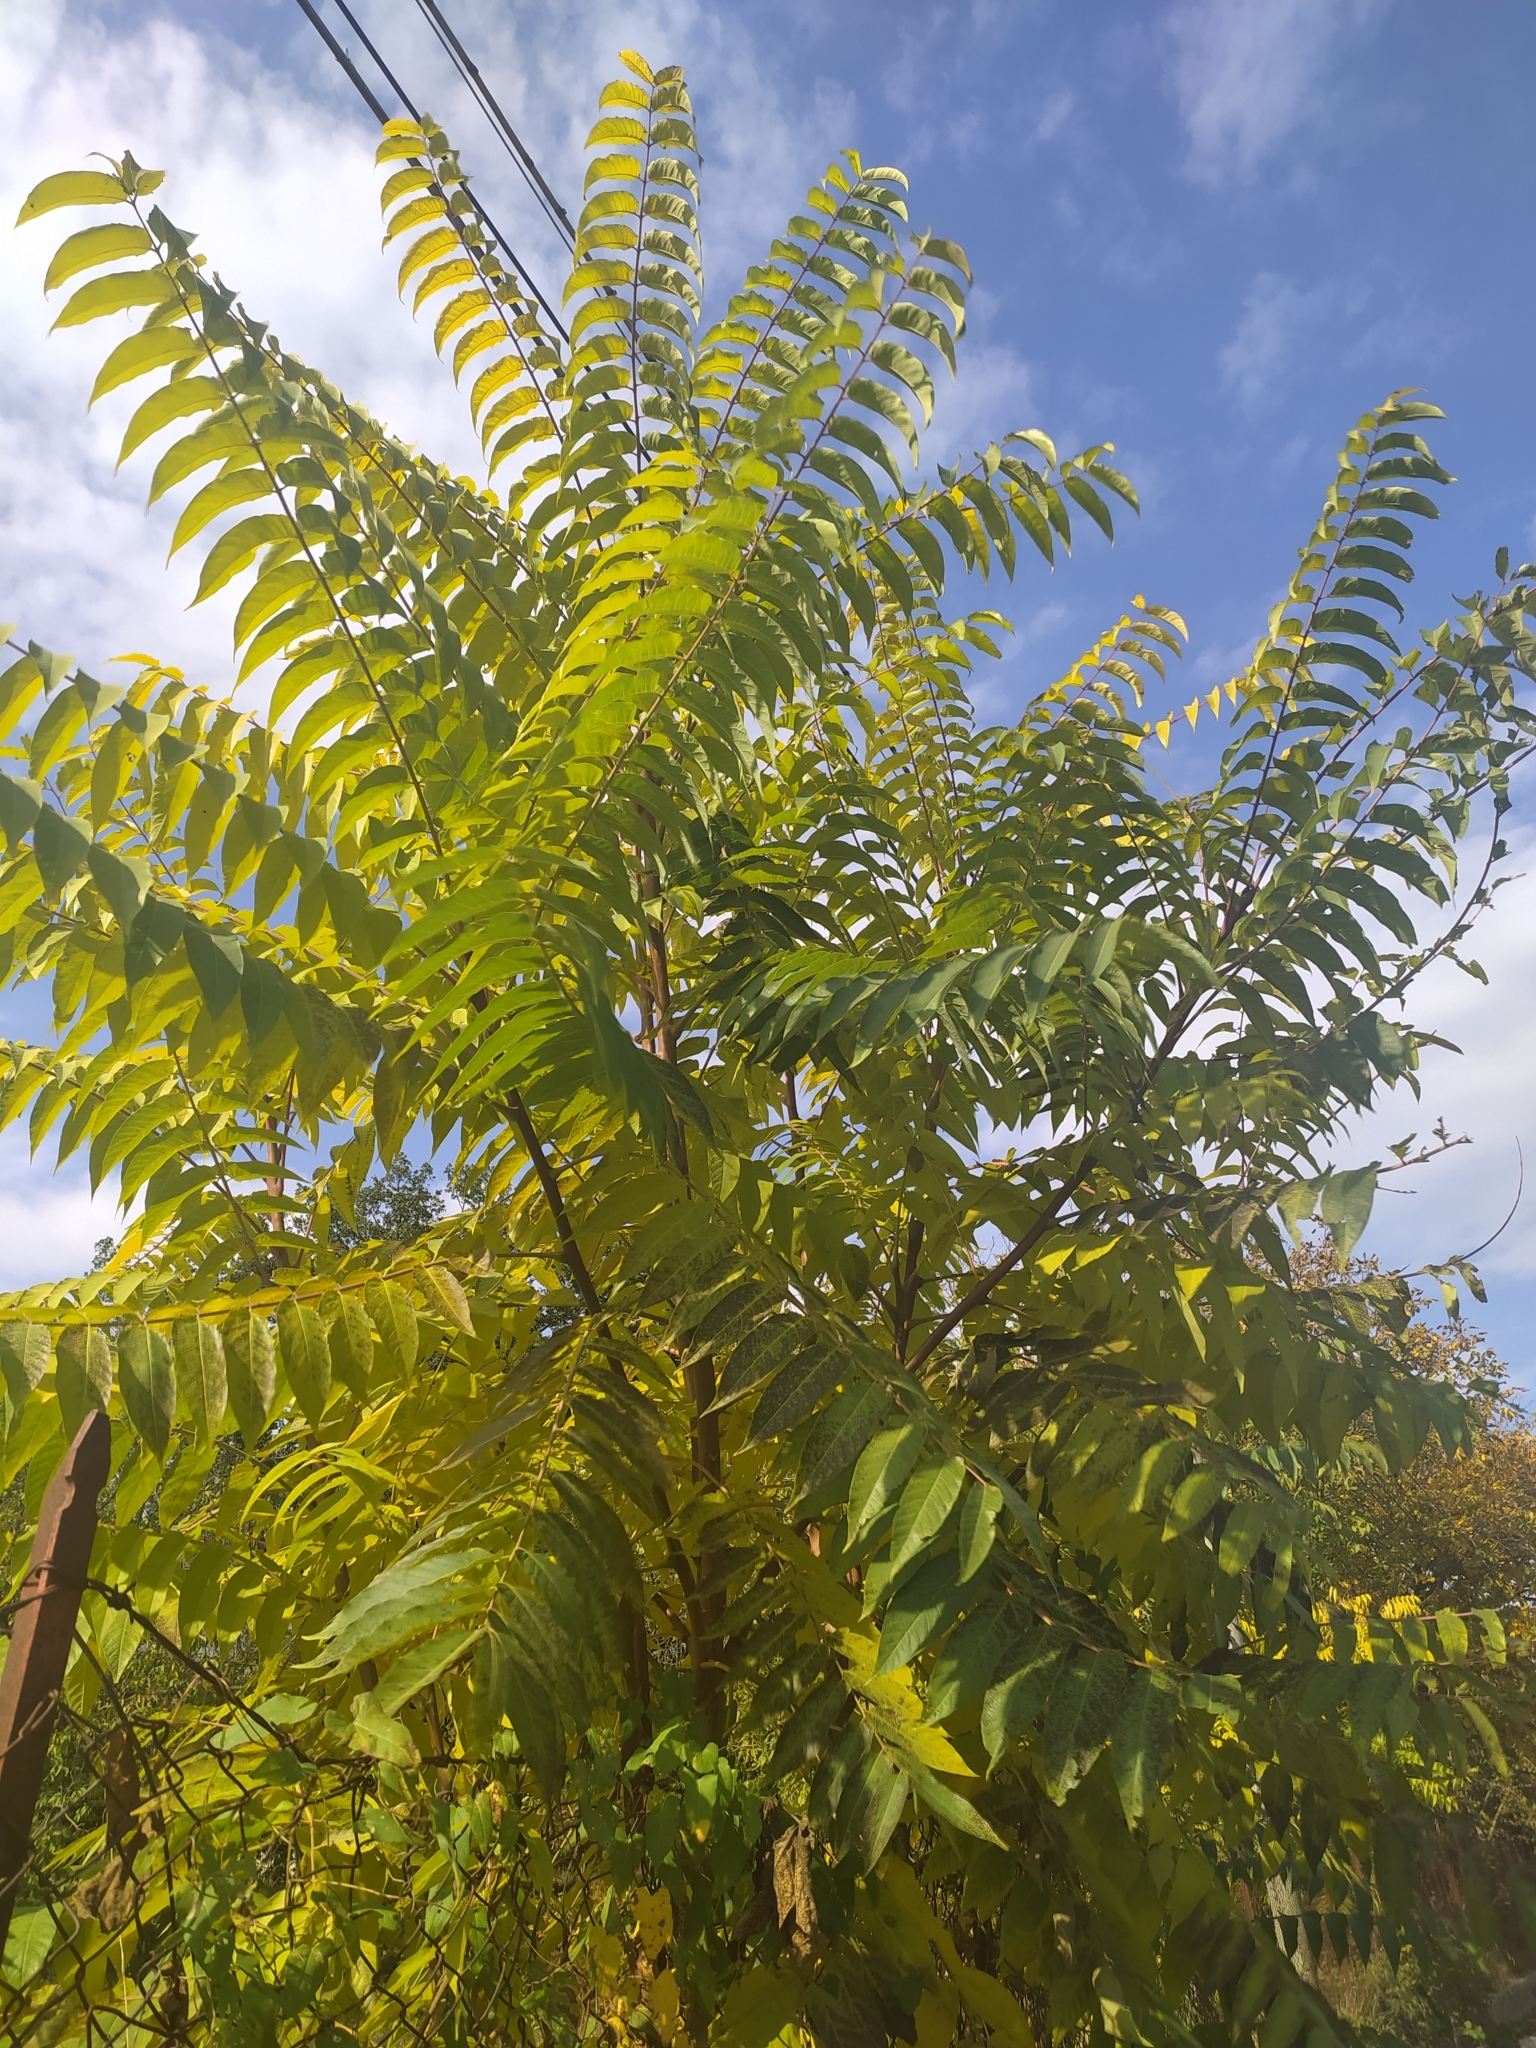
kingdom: Plantae
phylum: Tracheophyta
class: Magnoliopsida
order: Sapindales
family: Simaroubaceae
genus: Ailanthus
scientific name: Ailanthus altissima
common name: Tree-of-heaven
